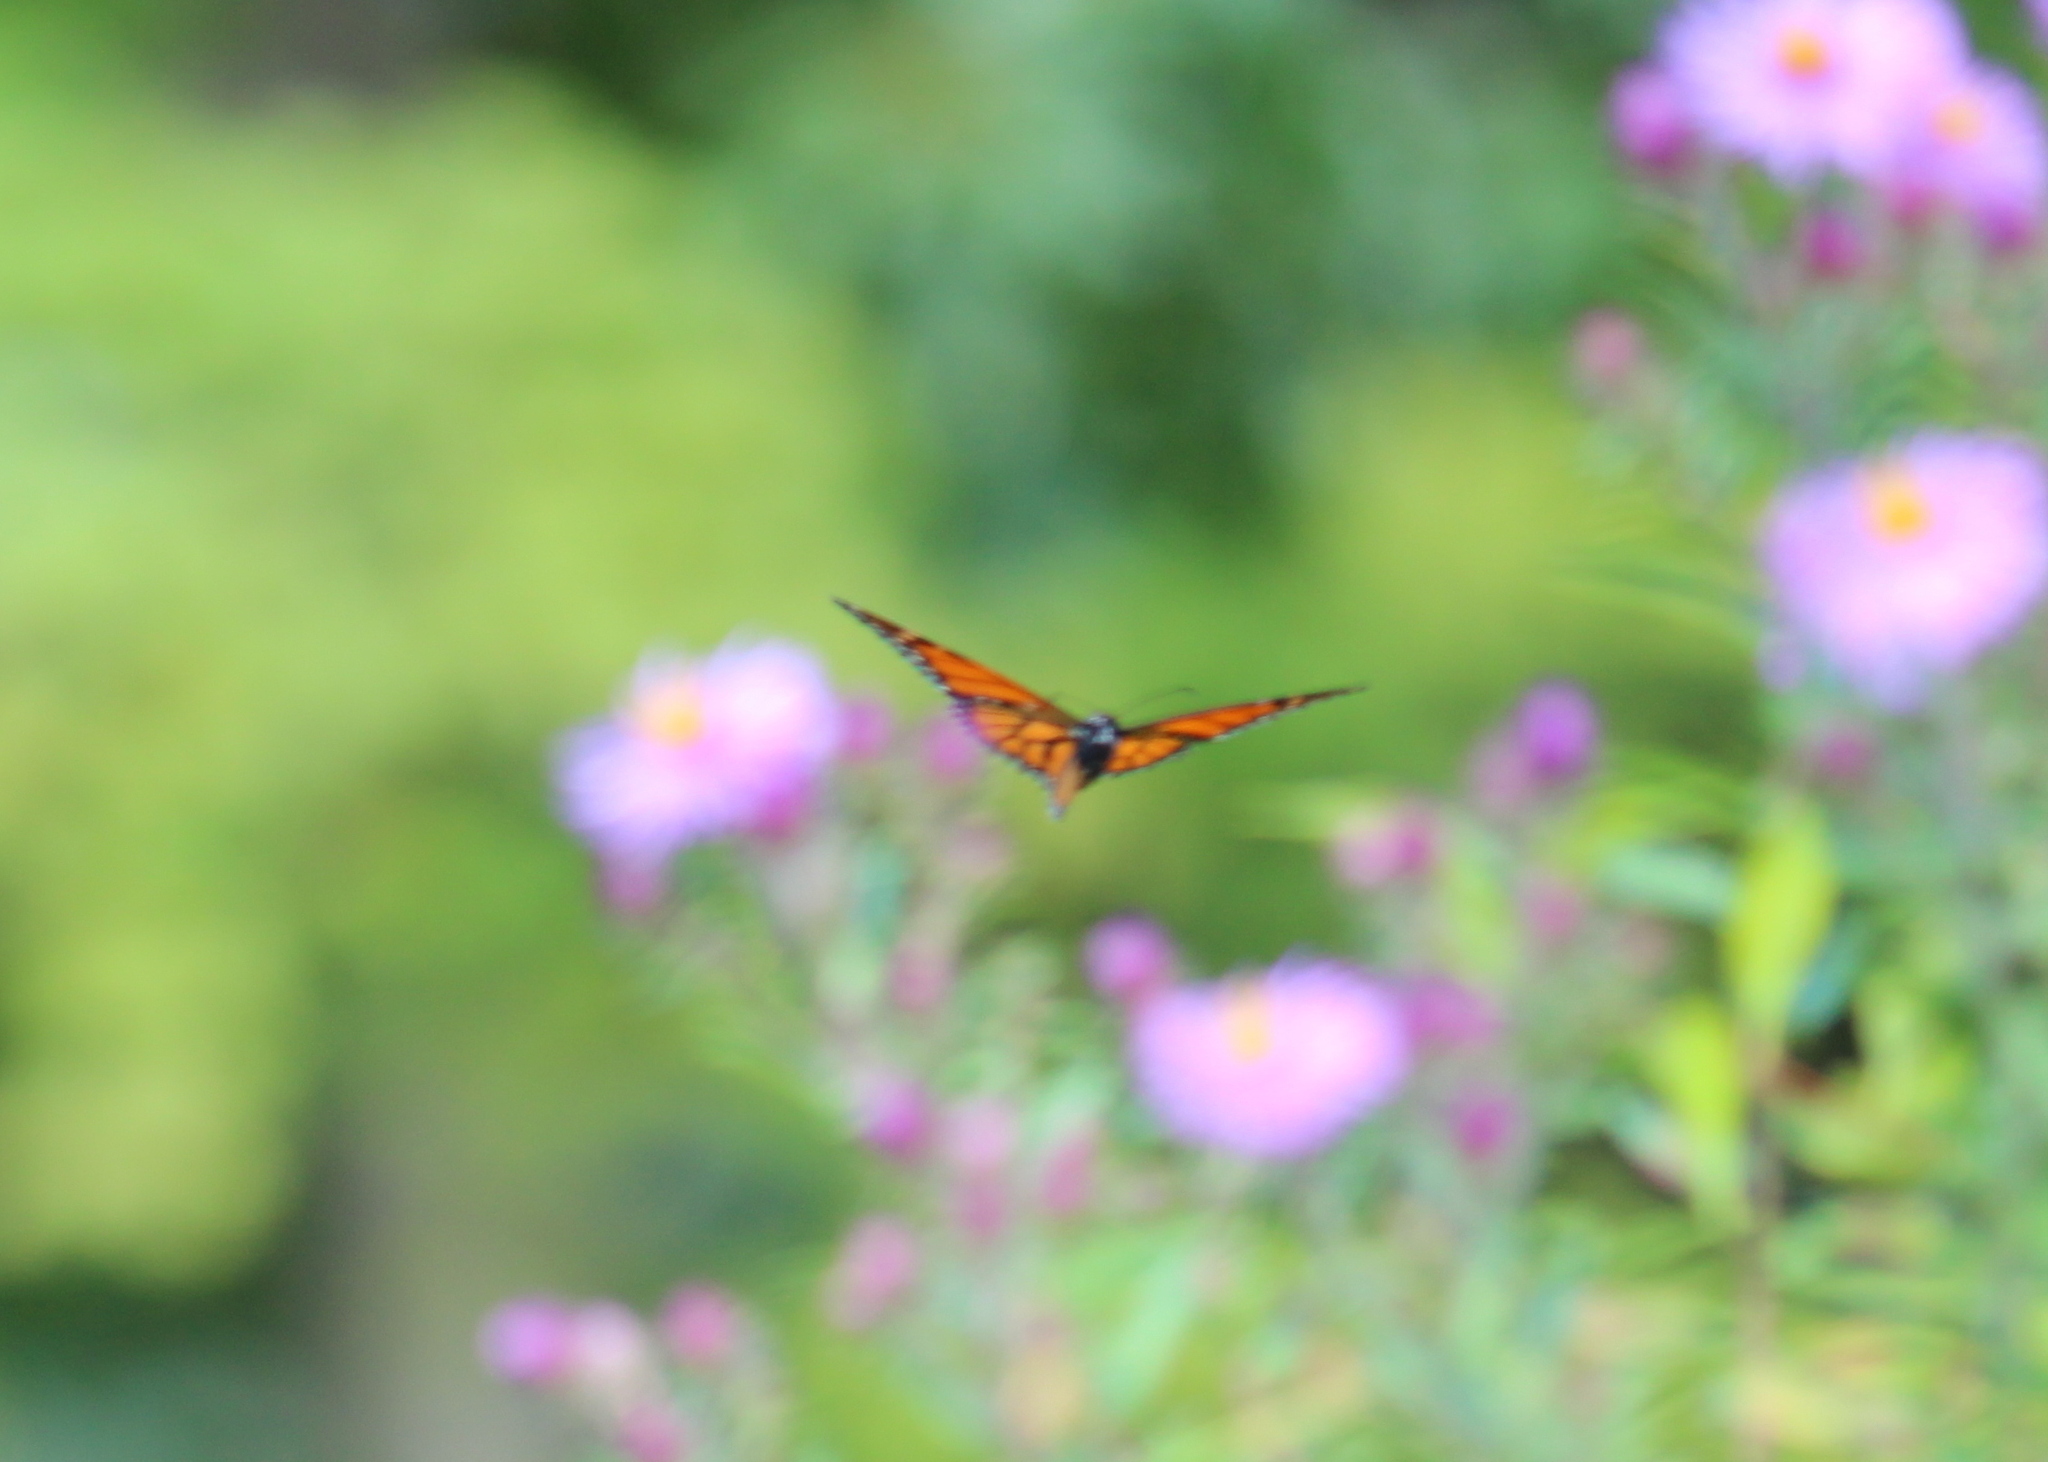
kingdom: Animalia
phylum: Arthropoda
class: Insecta
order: Lepidoptera
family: Nymphalidae
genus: Danaus
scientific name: Danaus plexippus
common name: Monarch
